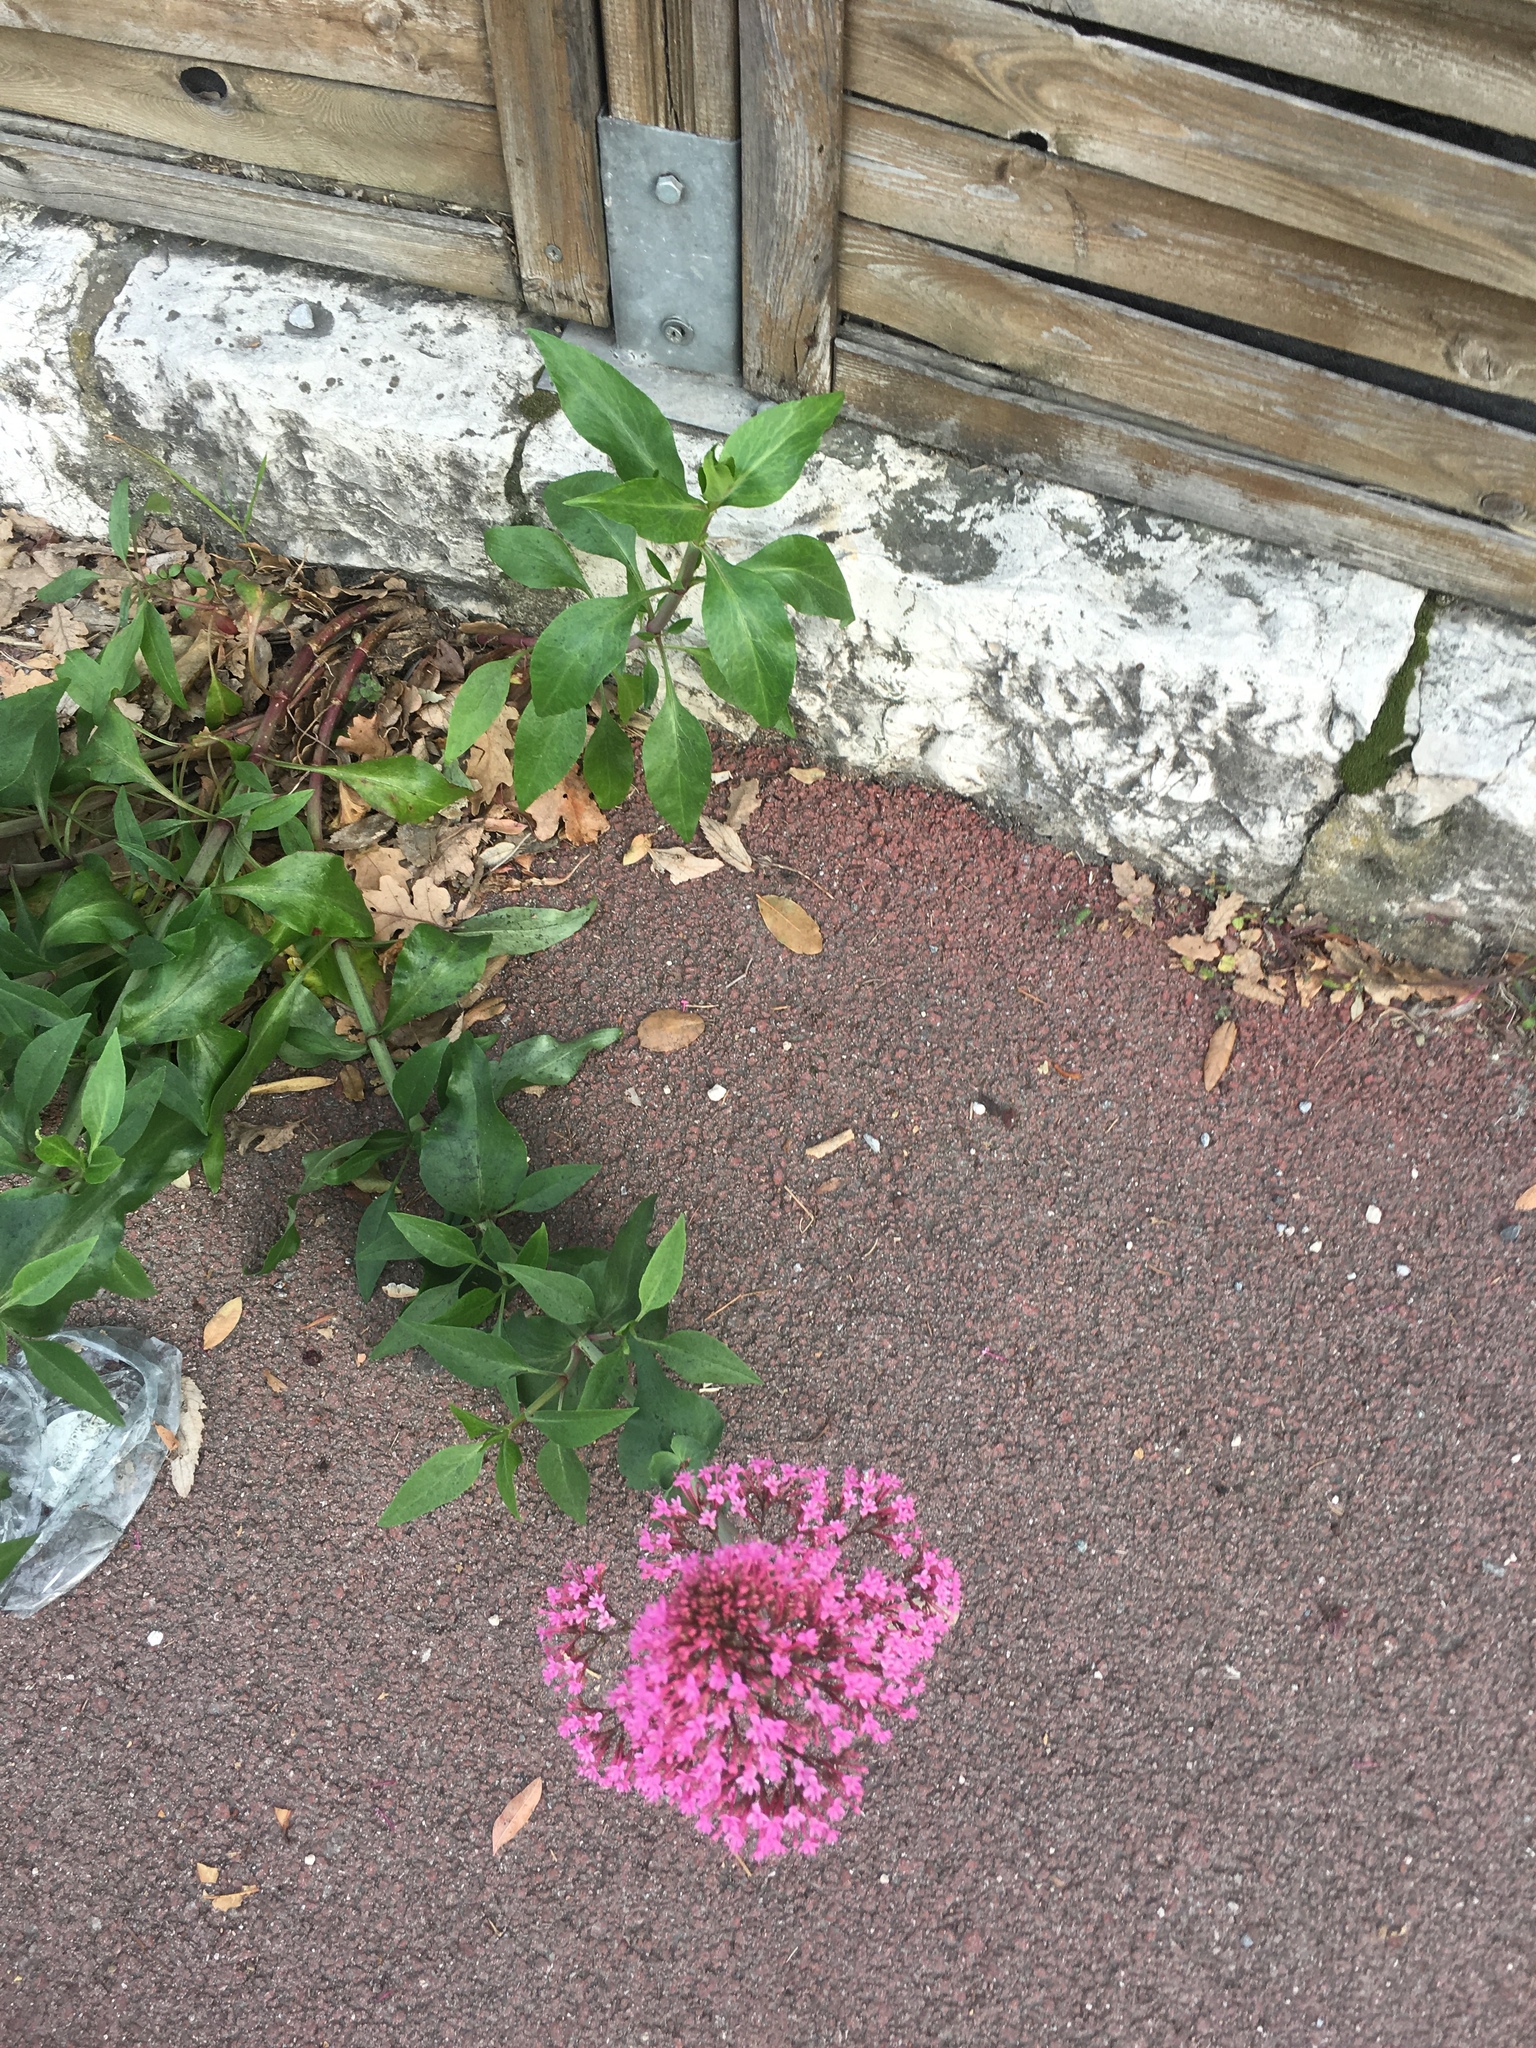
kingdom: Plantae
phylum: Tracheophyta
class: Magnoliopsida
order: Dipsacales
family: Caprifoliaceae
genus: Centranthus
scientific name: Centranthus ruber
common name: Red valerian
